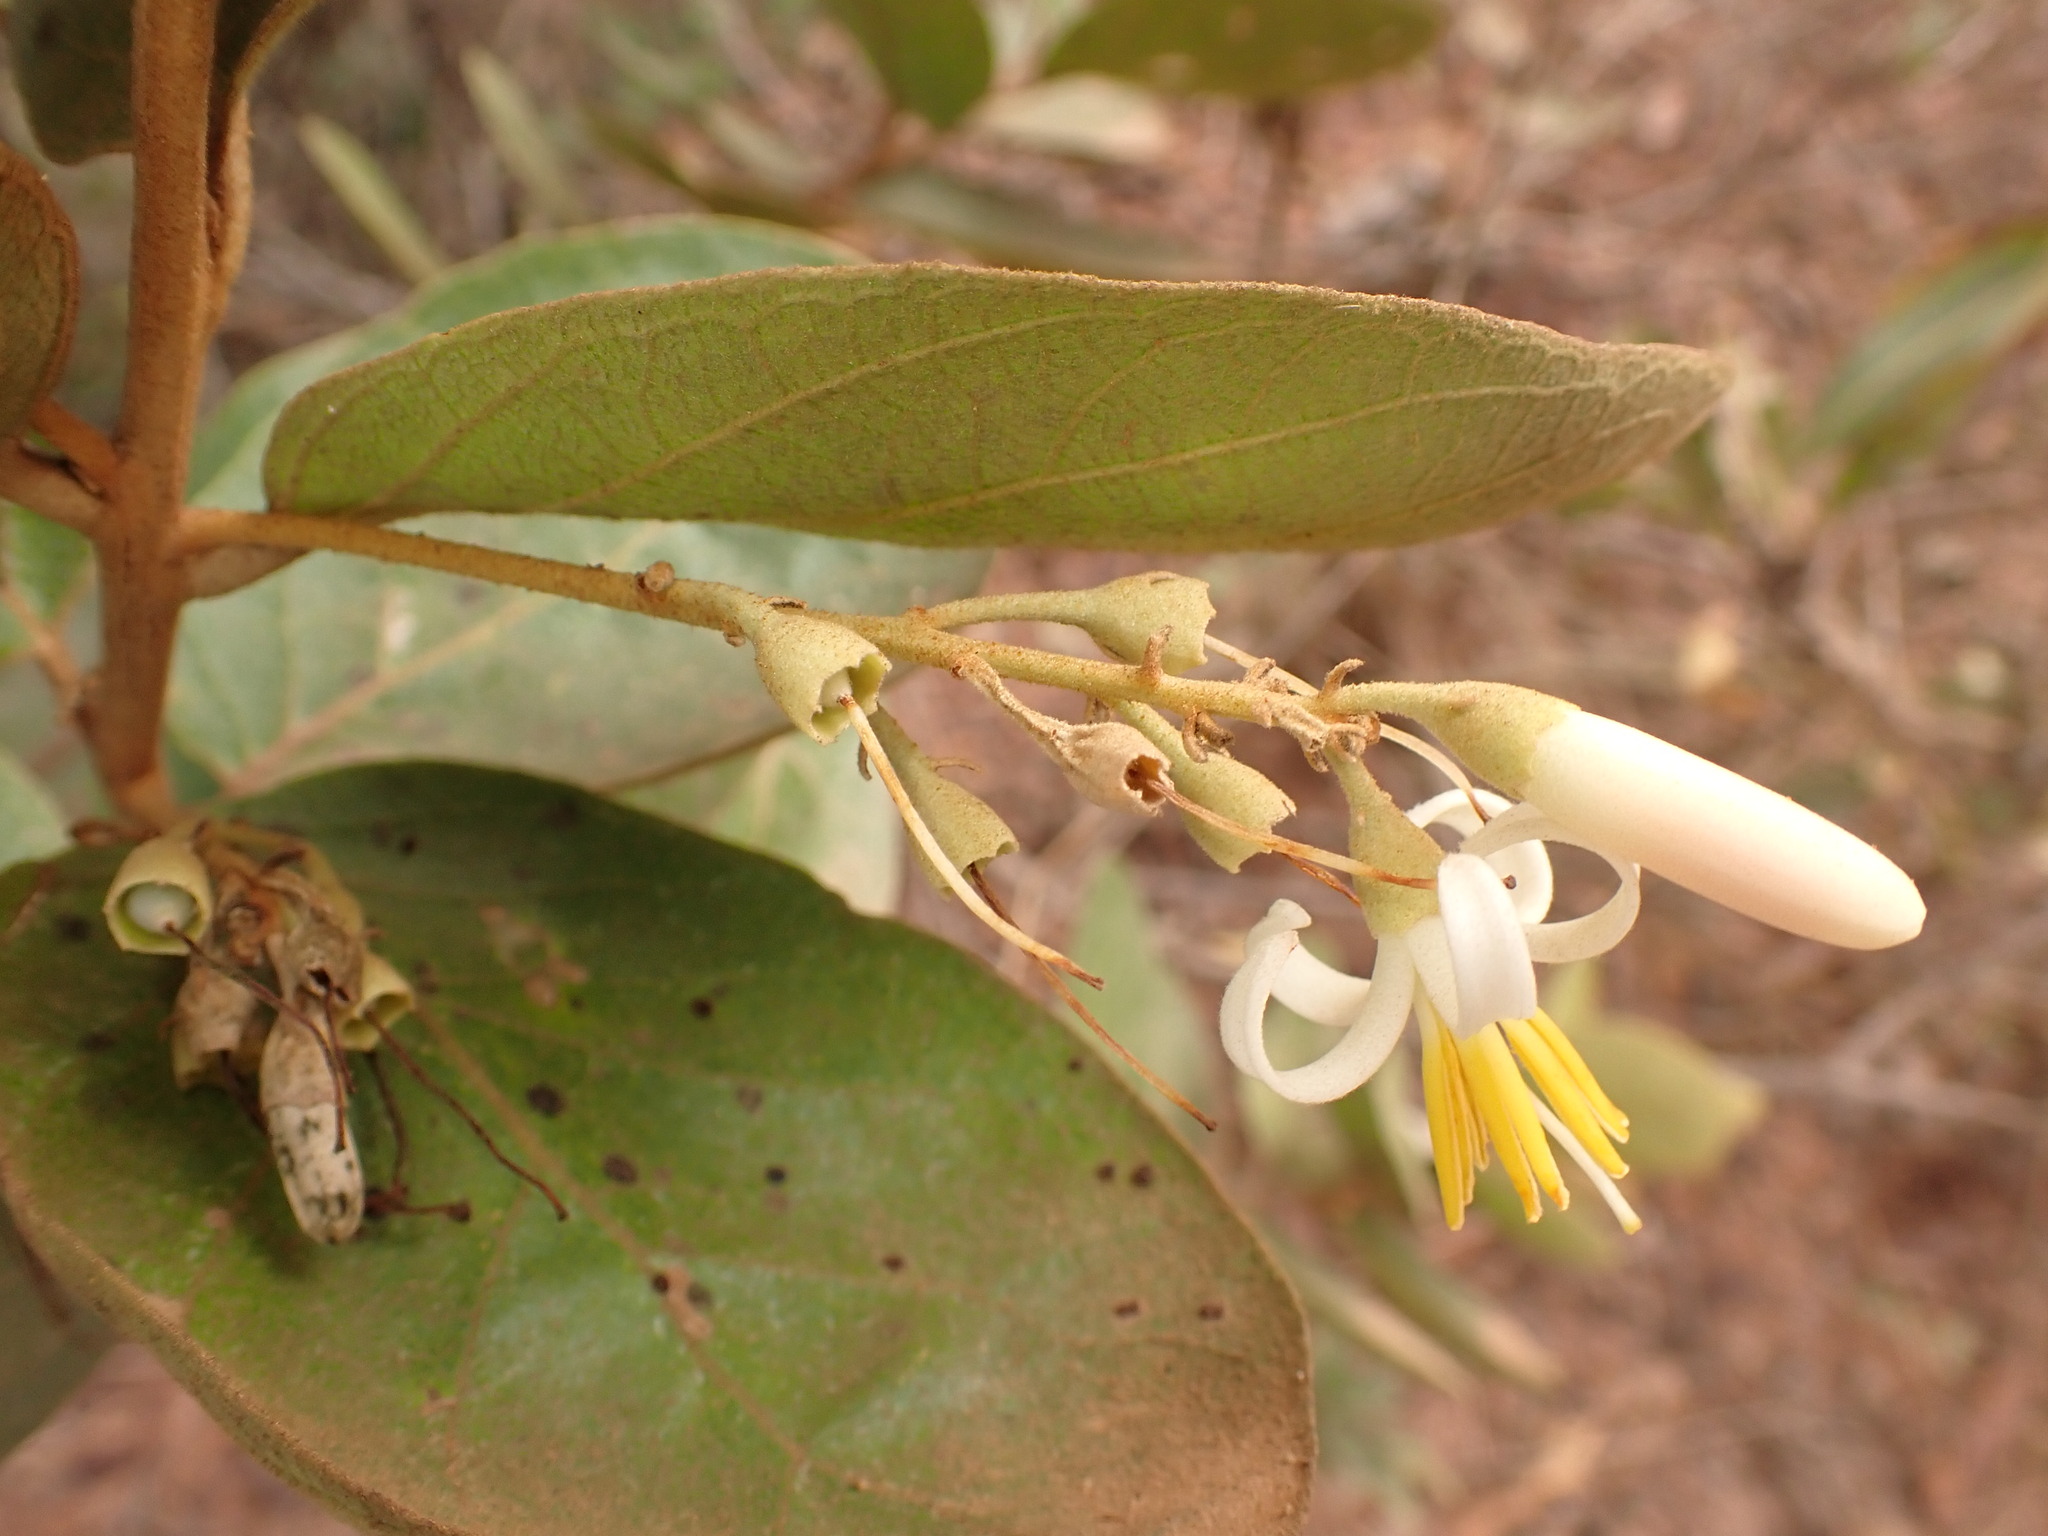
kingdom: Plantae
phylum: Tracheophyta
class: Magnoliopsida
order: Ericales
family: Styracaceae
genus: Styrax
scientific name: Styrax ferrugineus
